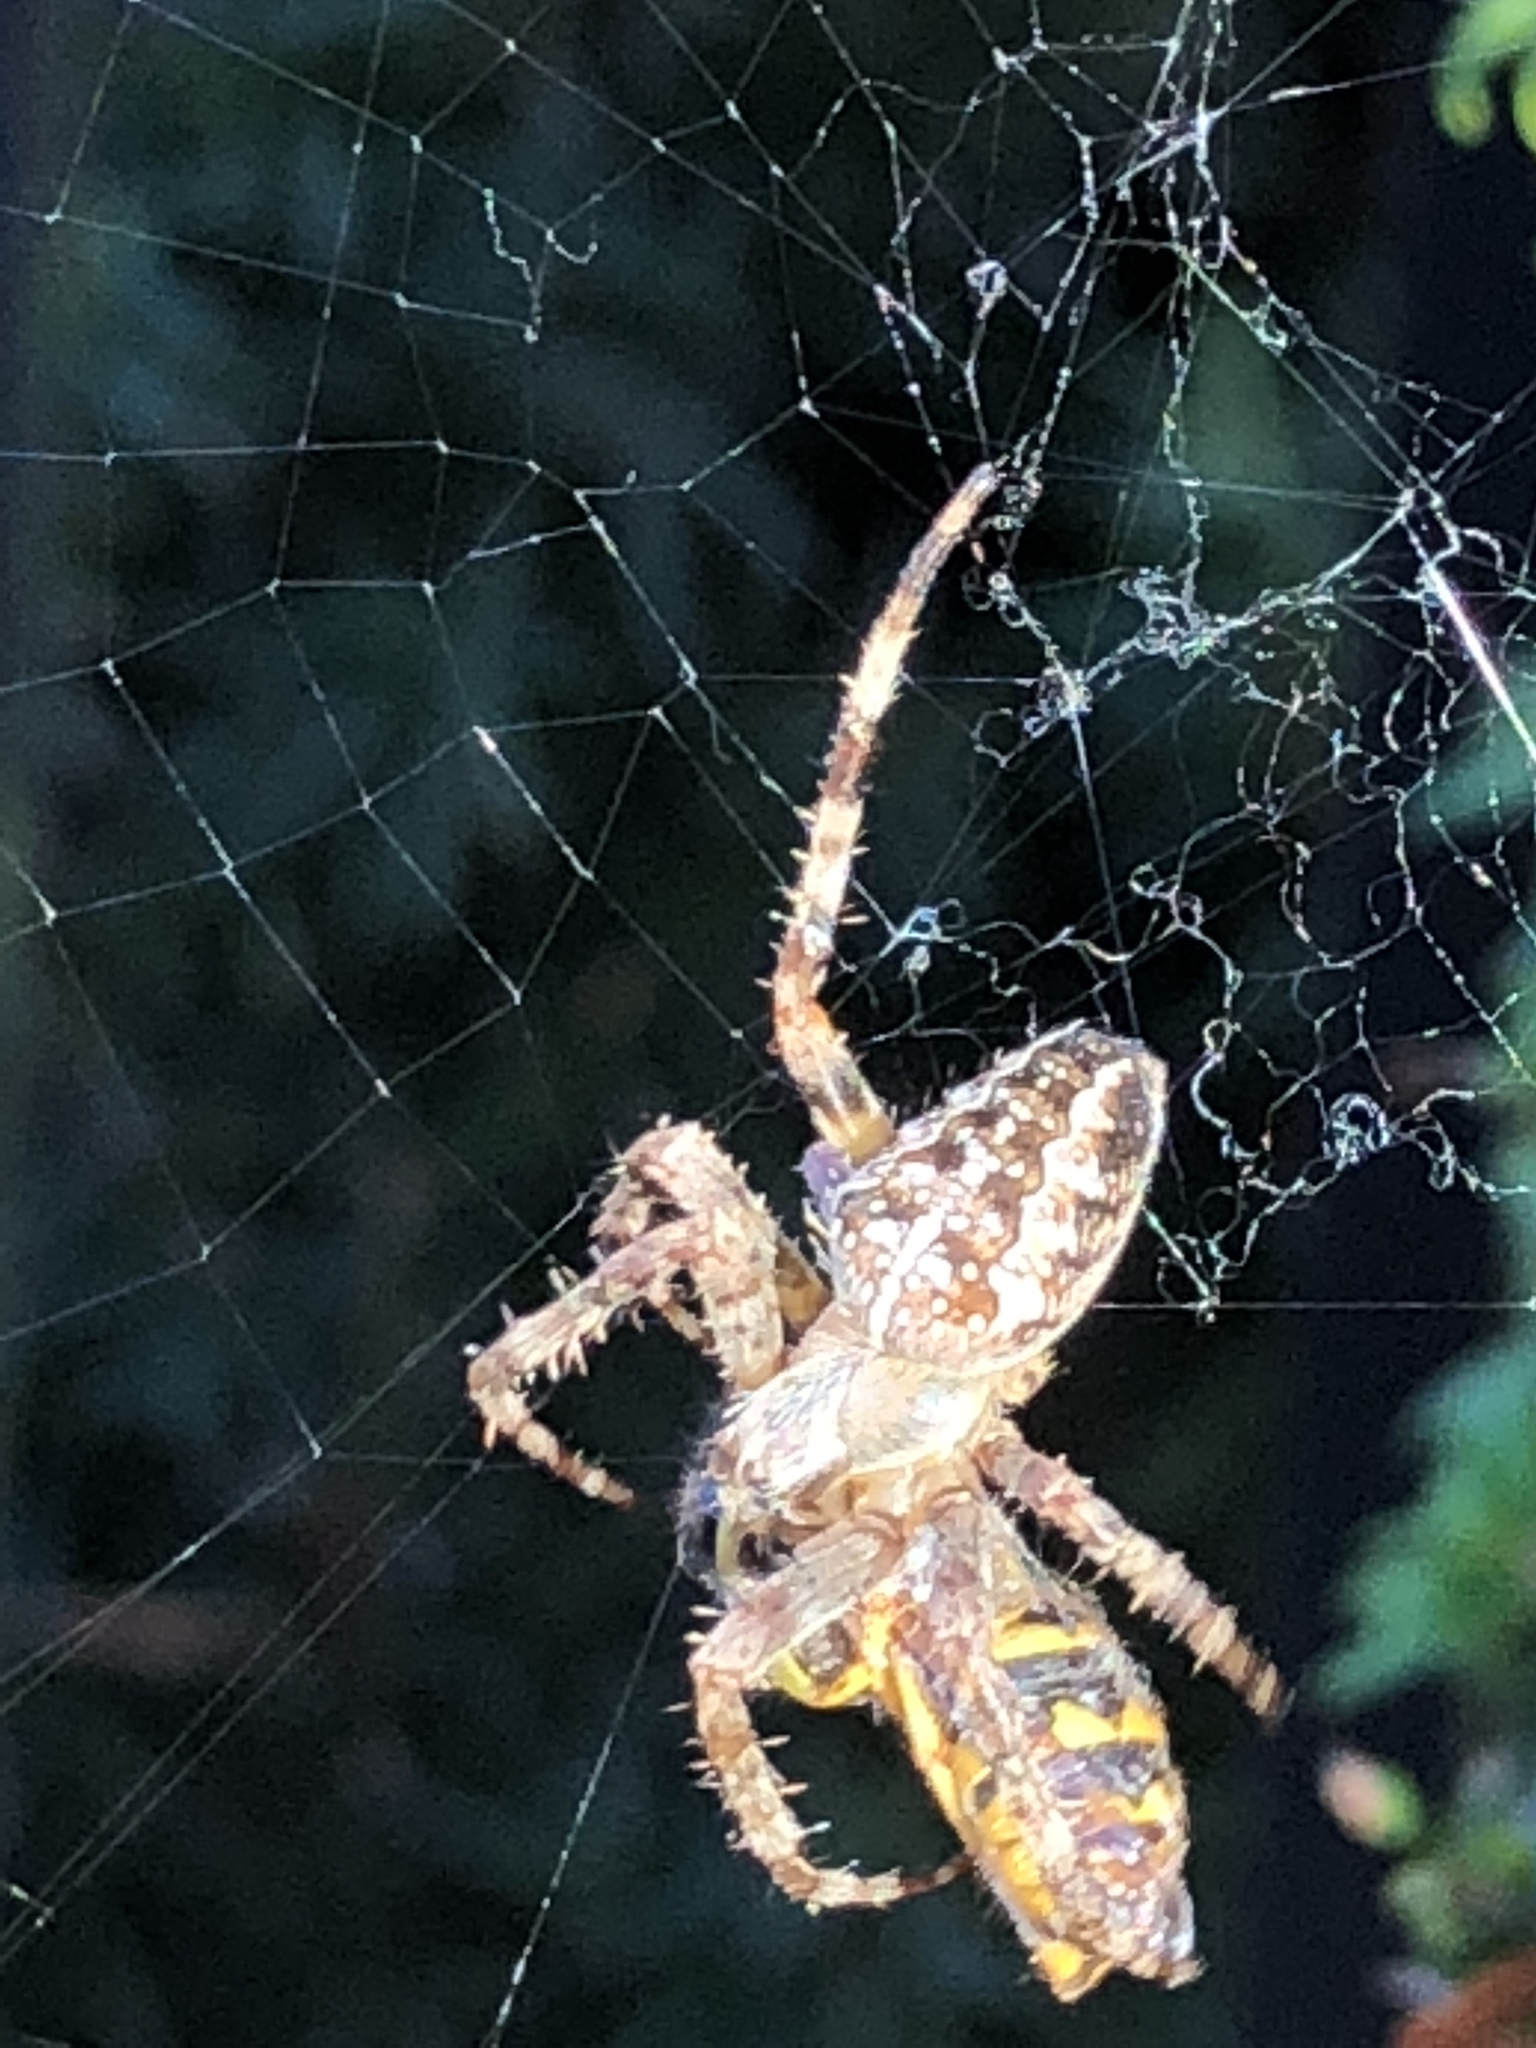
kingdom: Animalia
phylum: Arthropoda
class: Arachnida
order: Araneae
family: Araneidae
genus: Araneus
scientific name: Araneus diadematus
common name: Cross orbweaver
